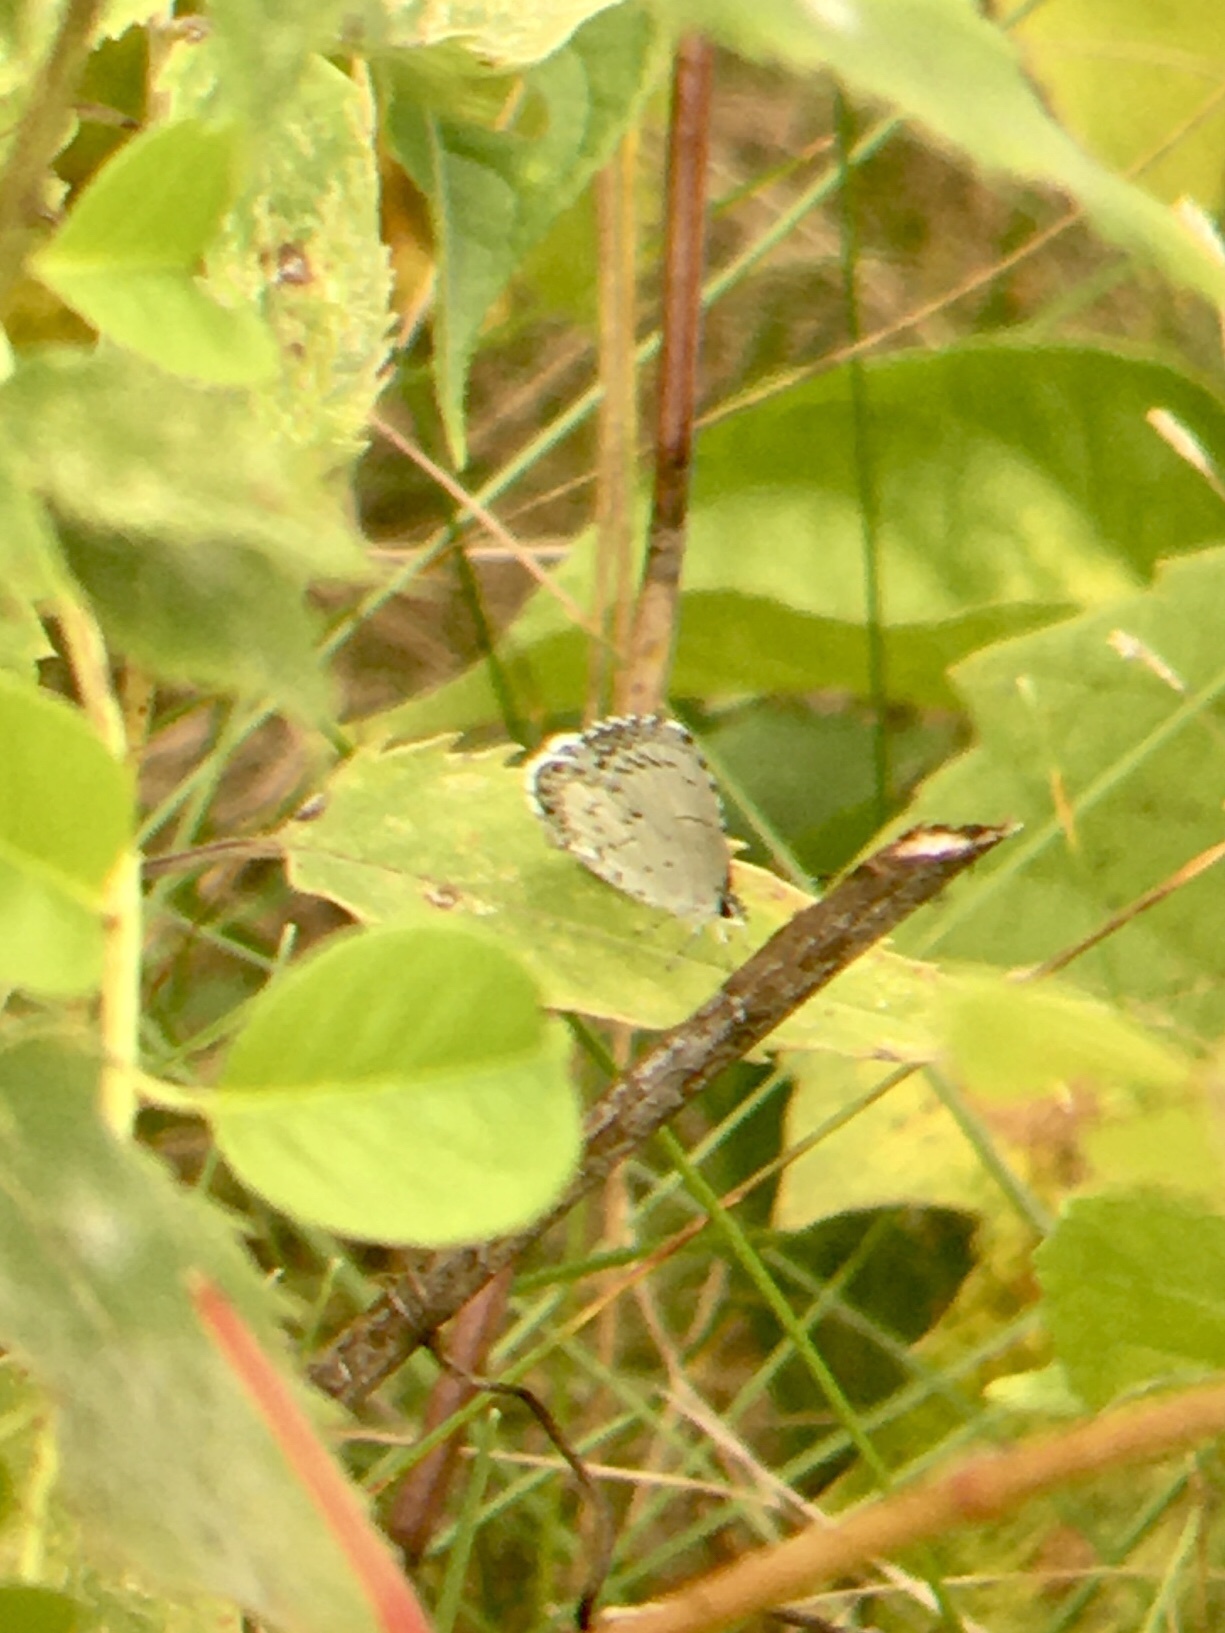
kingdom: Animalia
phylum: Arthropoda
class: Insecta
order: Lepidoptera
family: Lycaenidae
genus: Cyaniris
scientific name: Cyaniris neglecta
